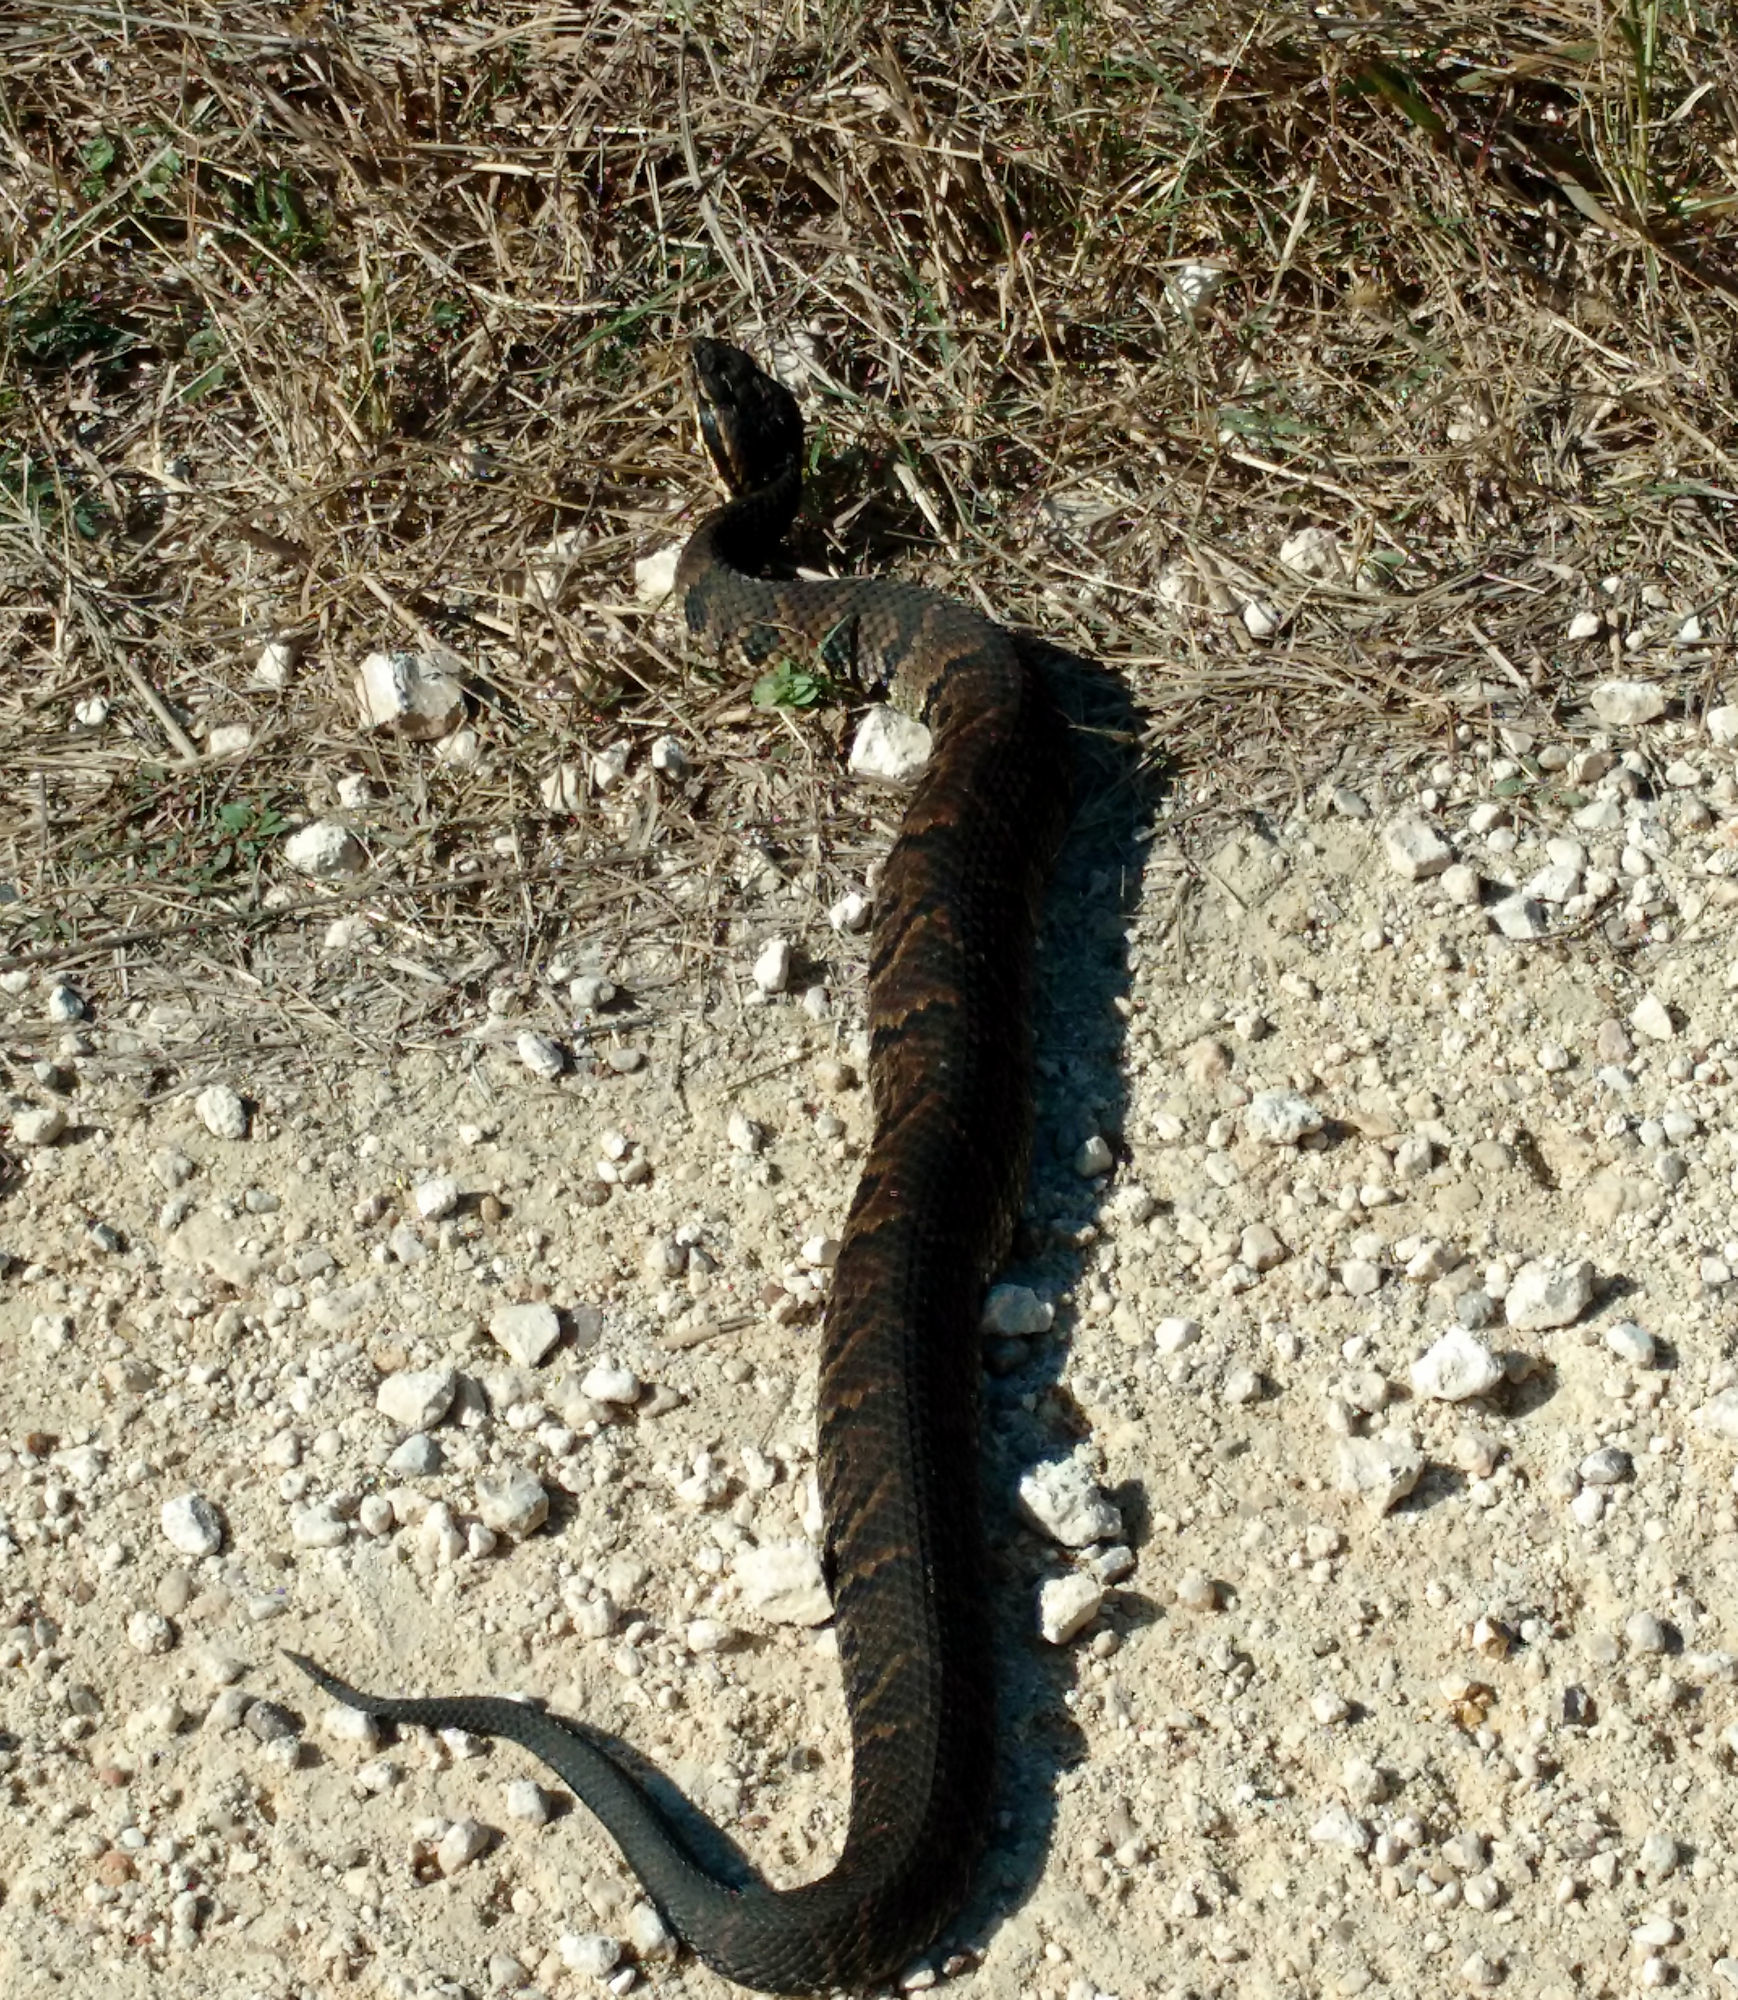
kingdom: Animalia
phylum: Chordata
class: Squamata
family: Viperidae
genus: Agkistrodon
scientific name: Agkistrodon piscivorus
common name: Cottonmouth
